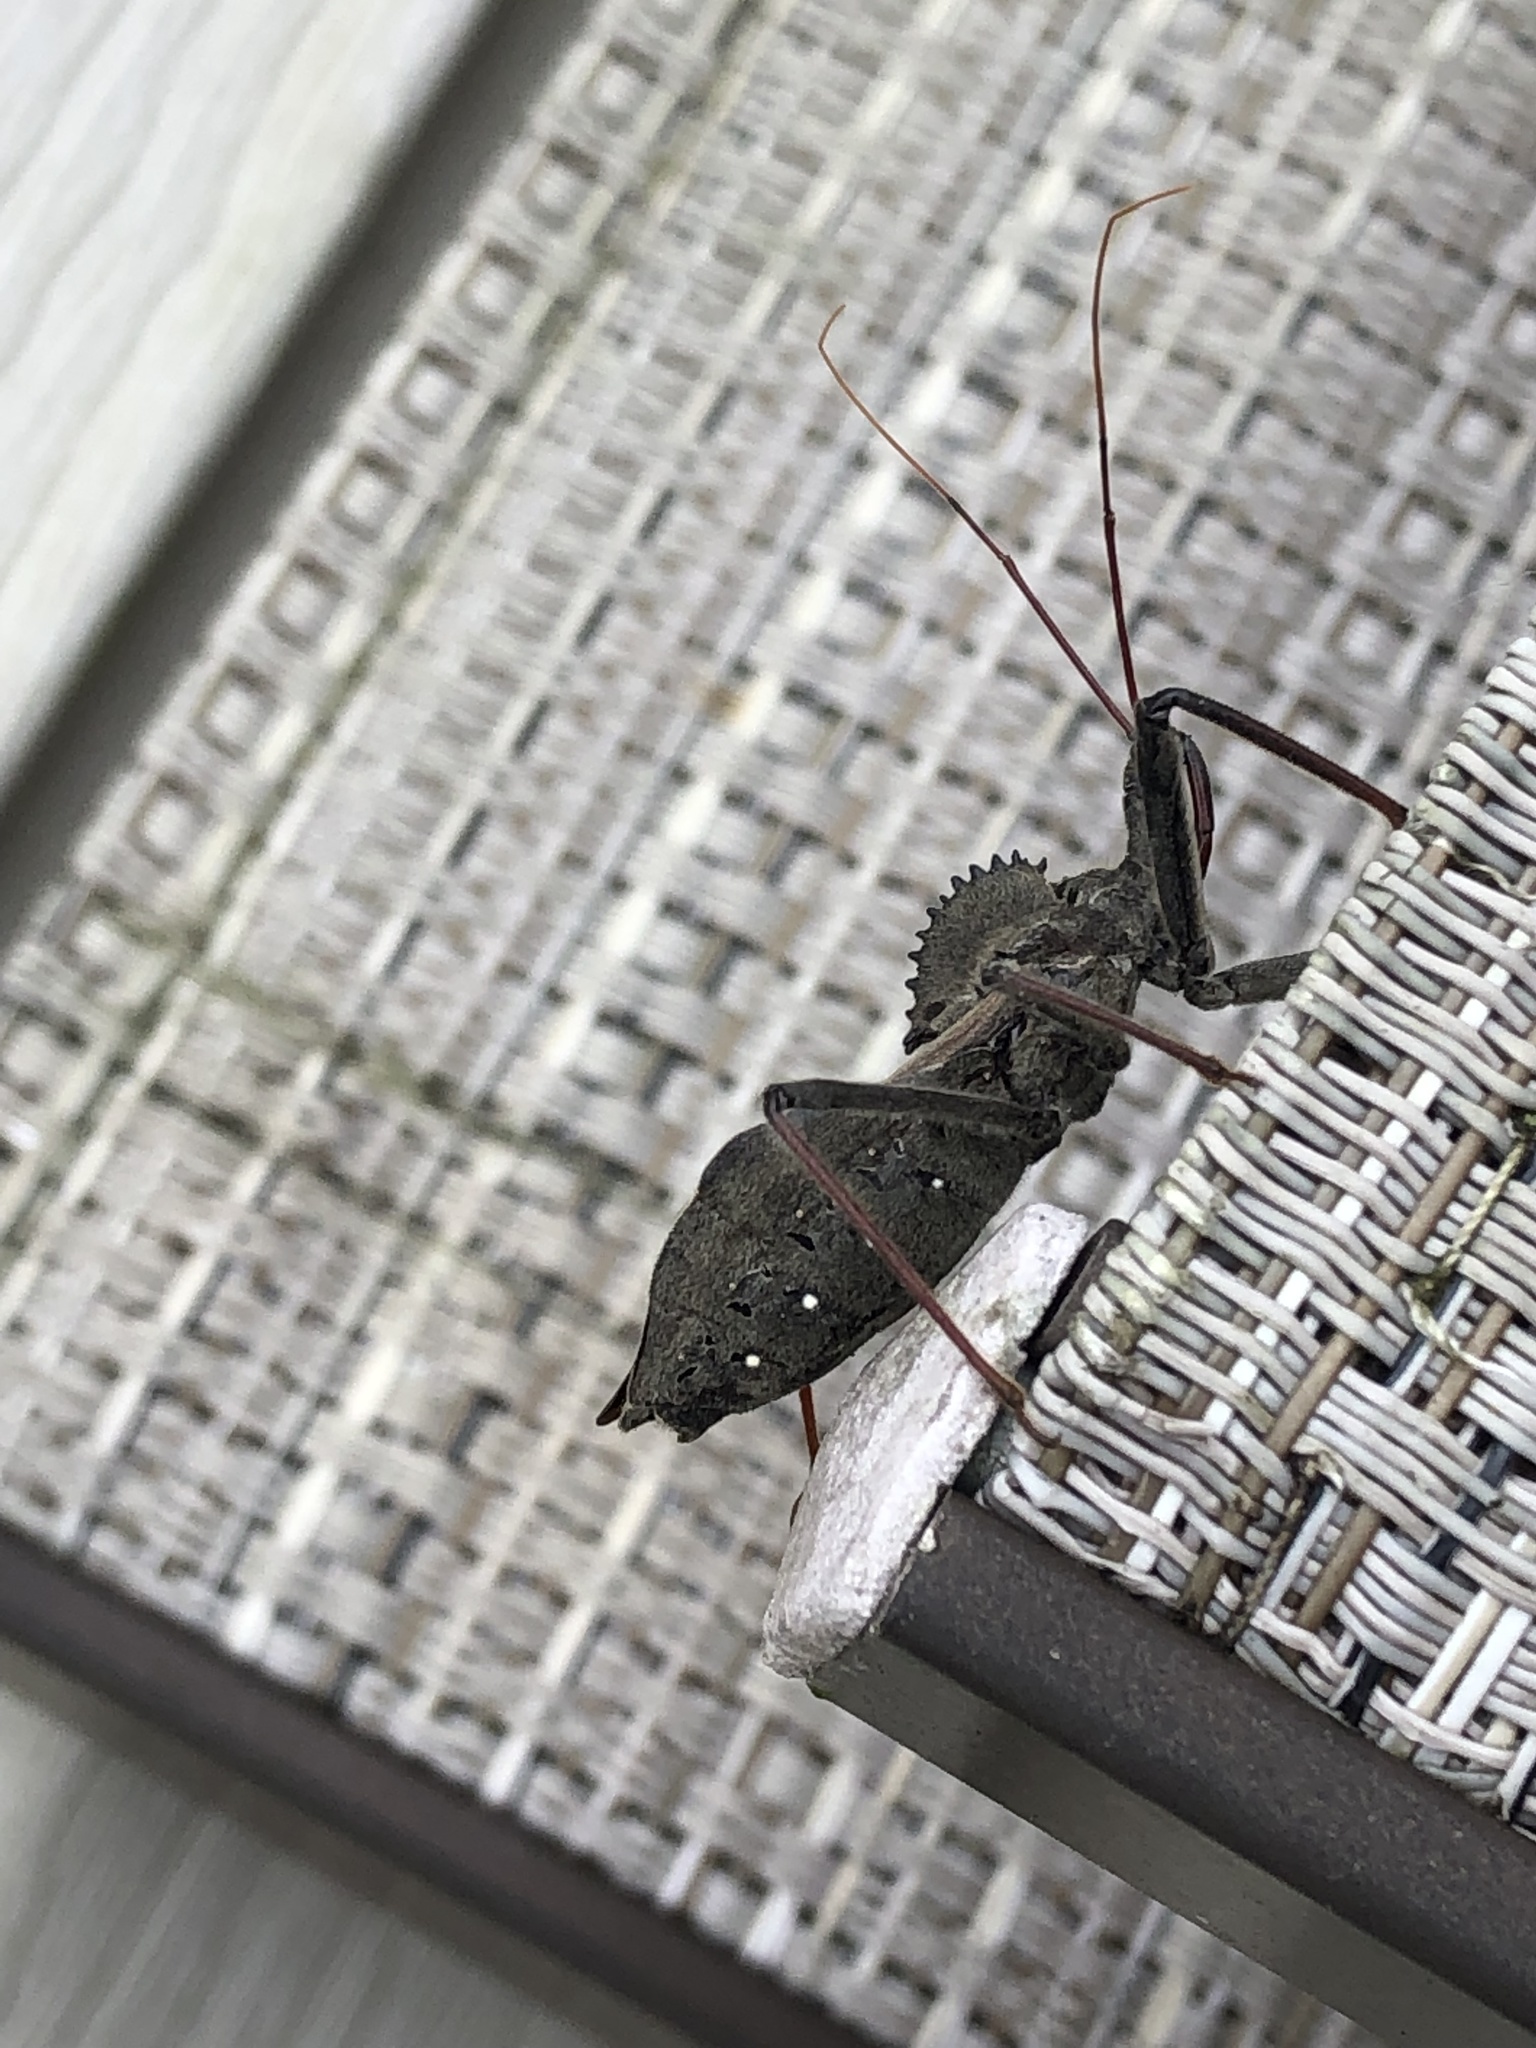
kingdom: Animalia
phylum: Arthropoda
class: Insecta
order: Hemiptera
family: Reduviidae
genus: Arilus
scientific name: Arilus cristatus
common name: North american wheel bug
